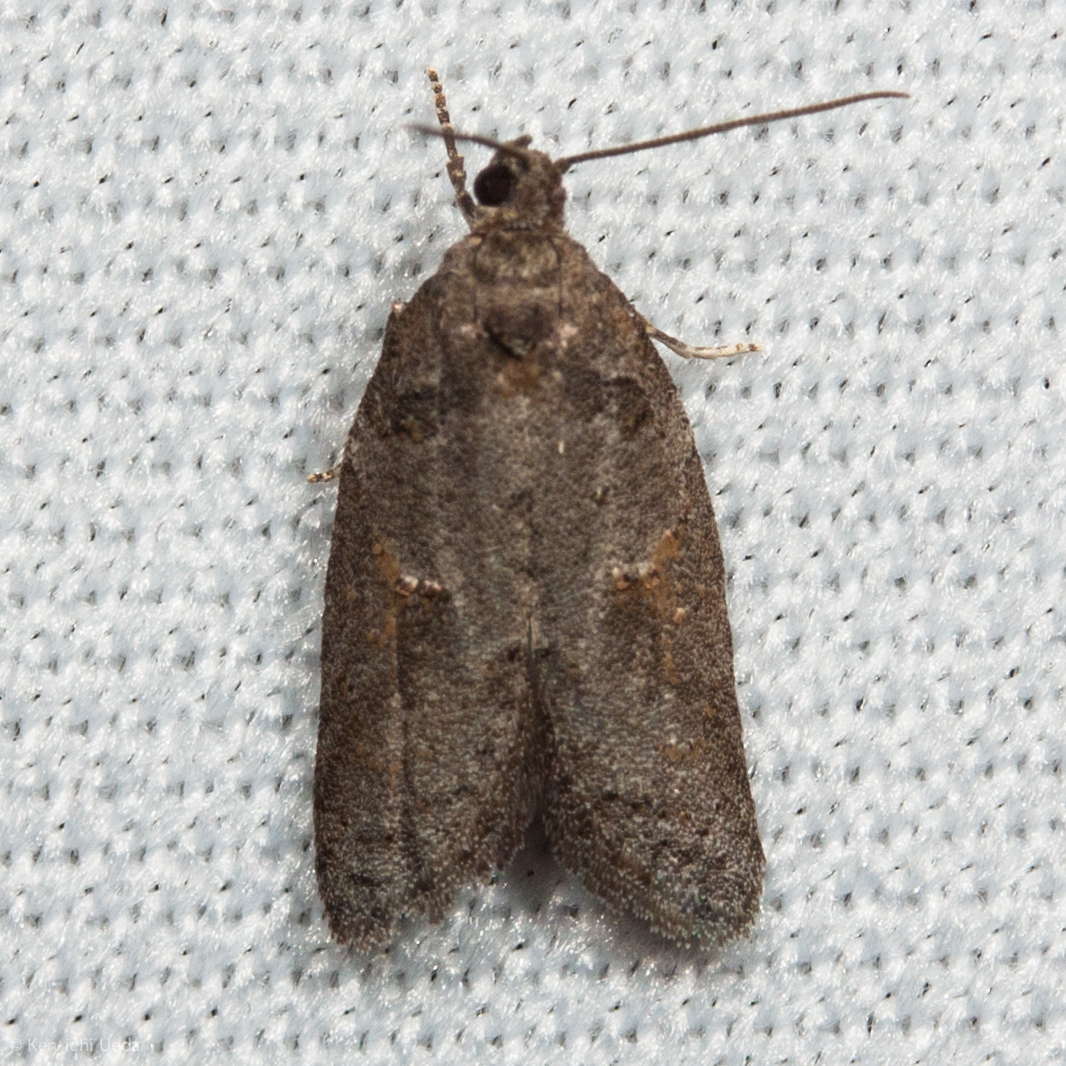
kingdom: Animalia
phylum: Arthropoda
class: Insecta
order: Lepidoptera
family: Tortricidae
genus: Decodes
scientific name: Decodes fragariana
